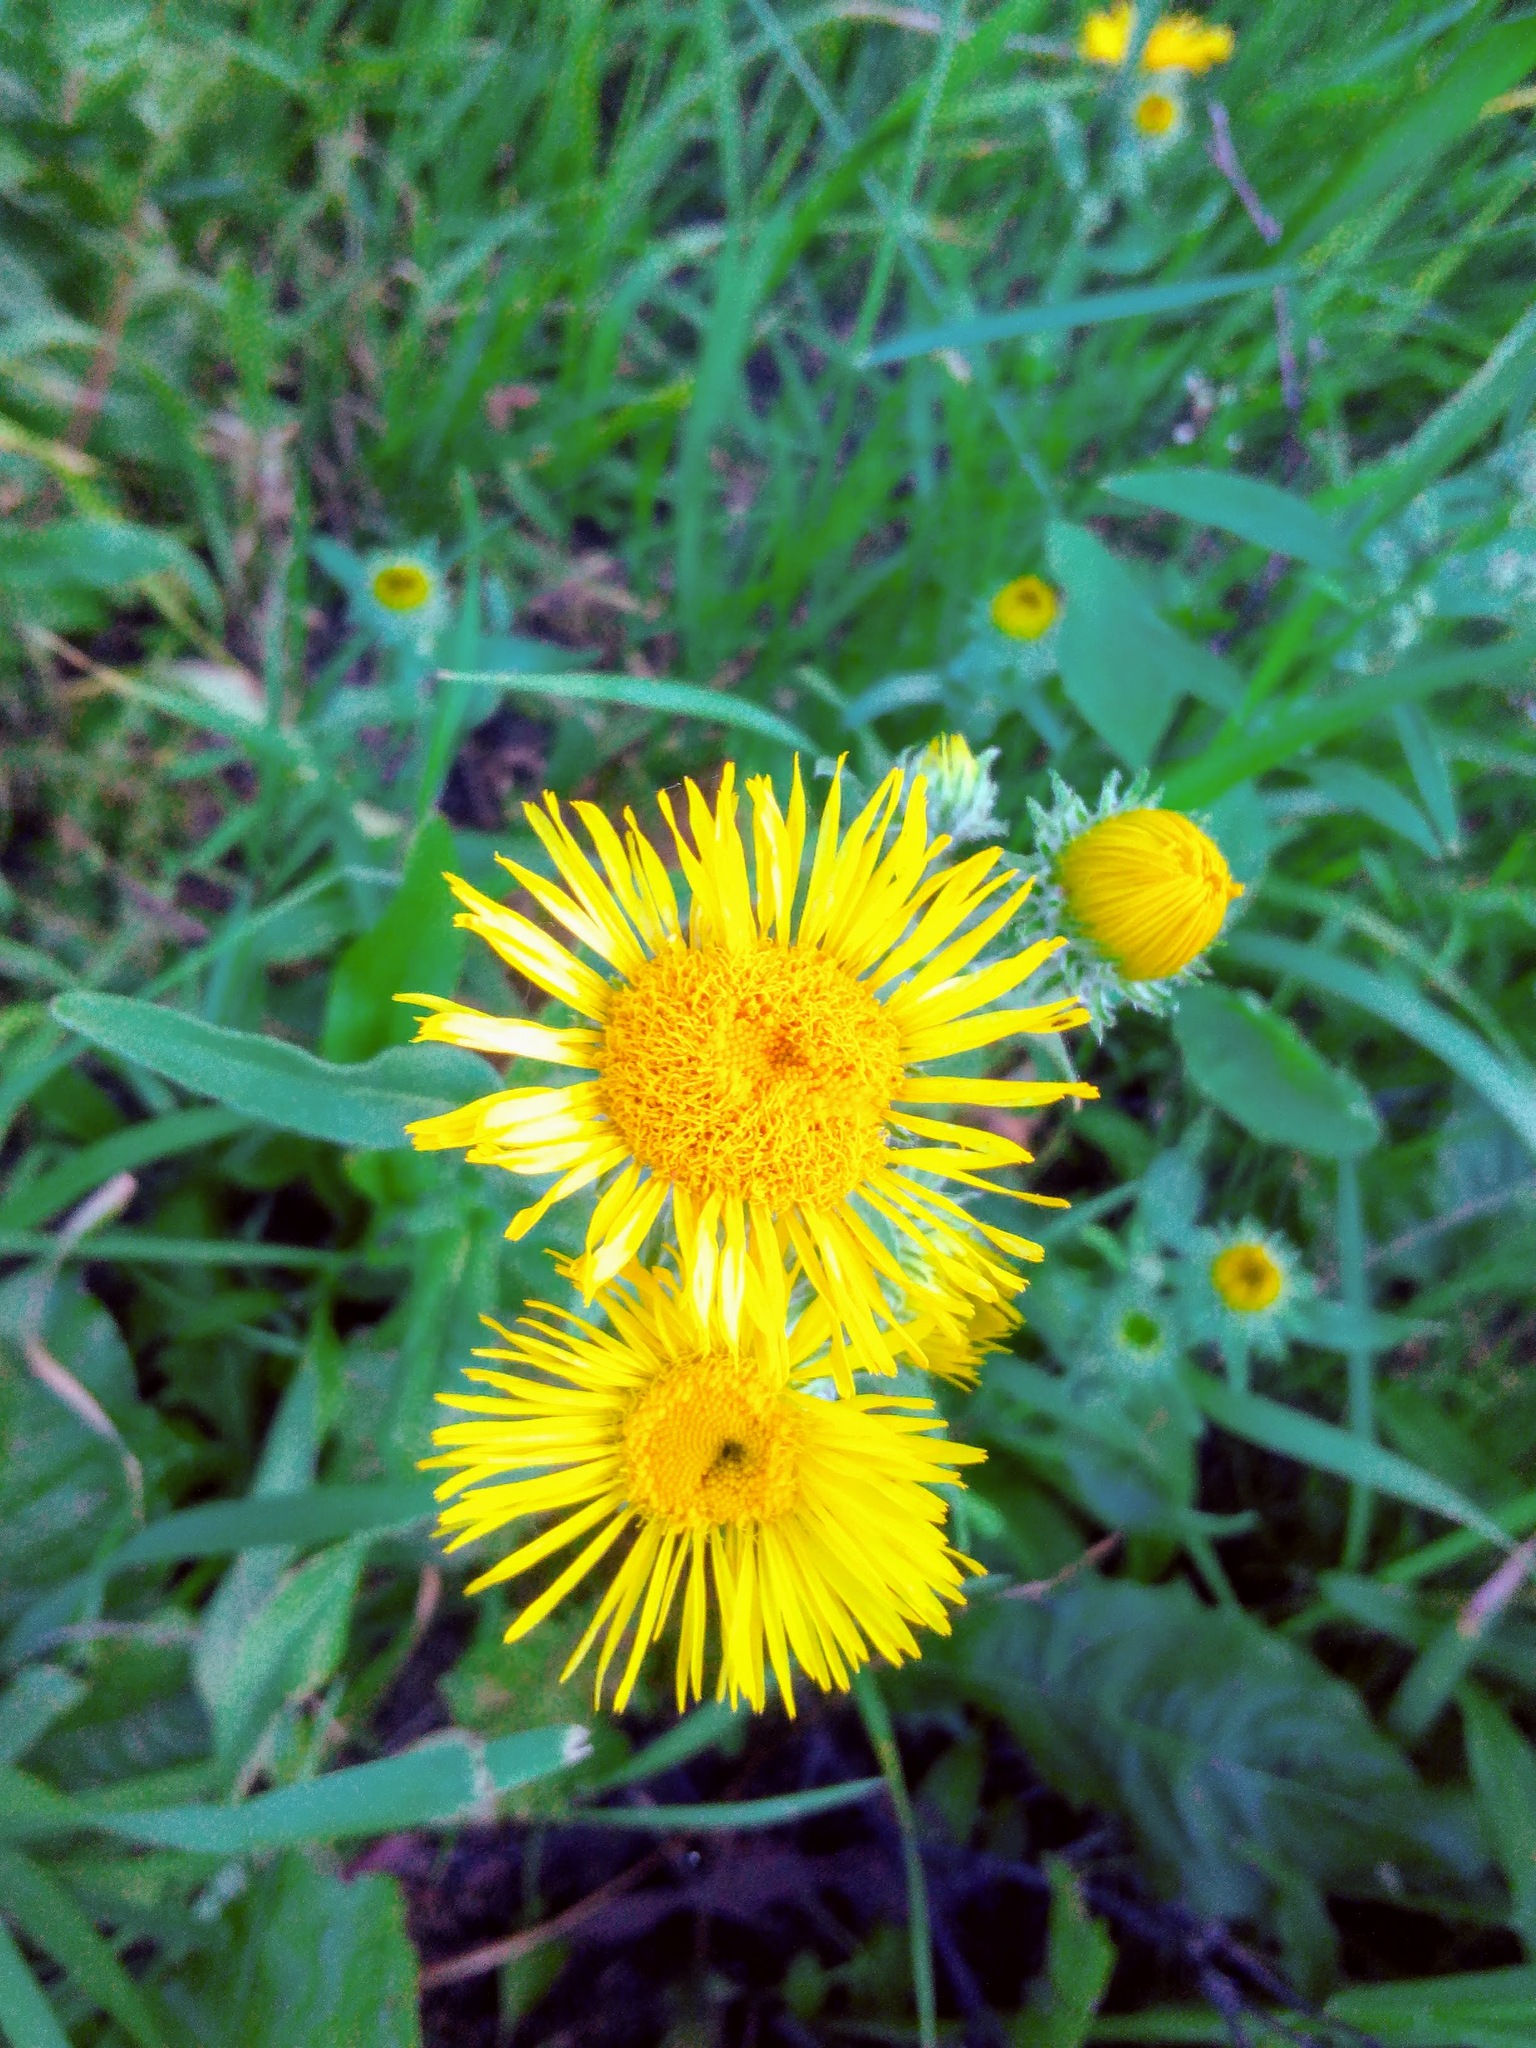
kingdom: Plantae
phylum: Tracheophyta
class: Magnoliopsida
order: Asterales
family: Asteraceae
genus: Pentanema
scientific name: Pentanema britannicum
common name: British elecampane
